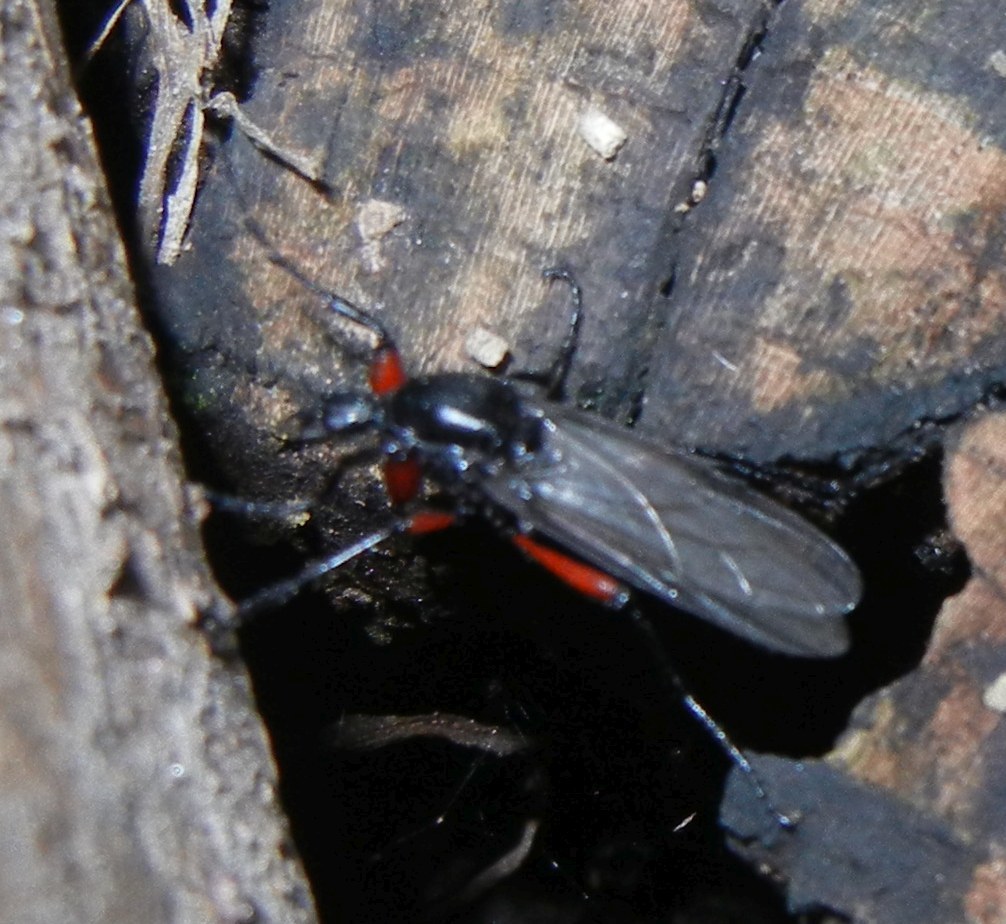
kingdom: Animalia
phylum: Arthropoda
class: Insecta
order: Diptera
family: Bibionidae
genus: Bibio
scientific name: Bibio pomonae
